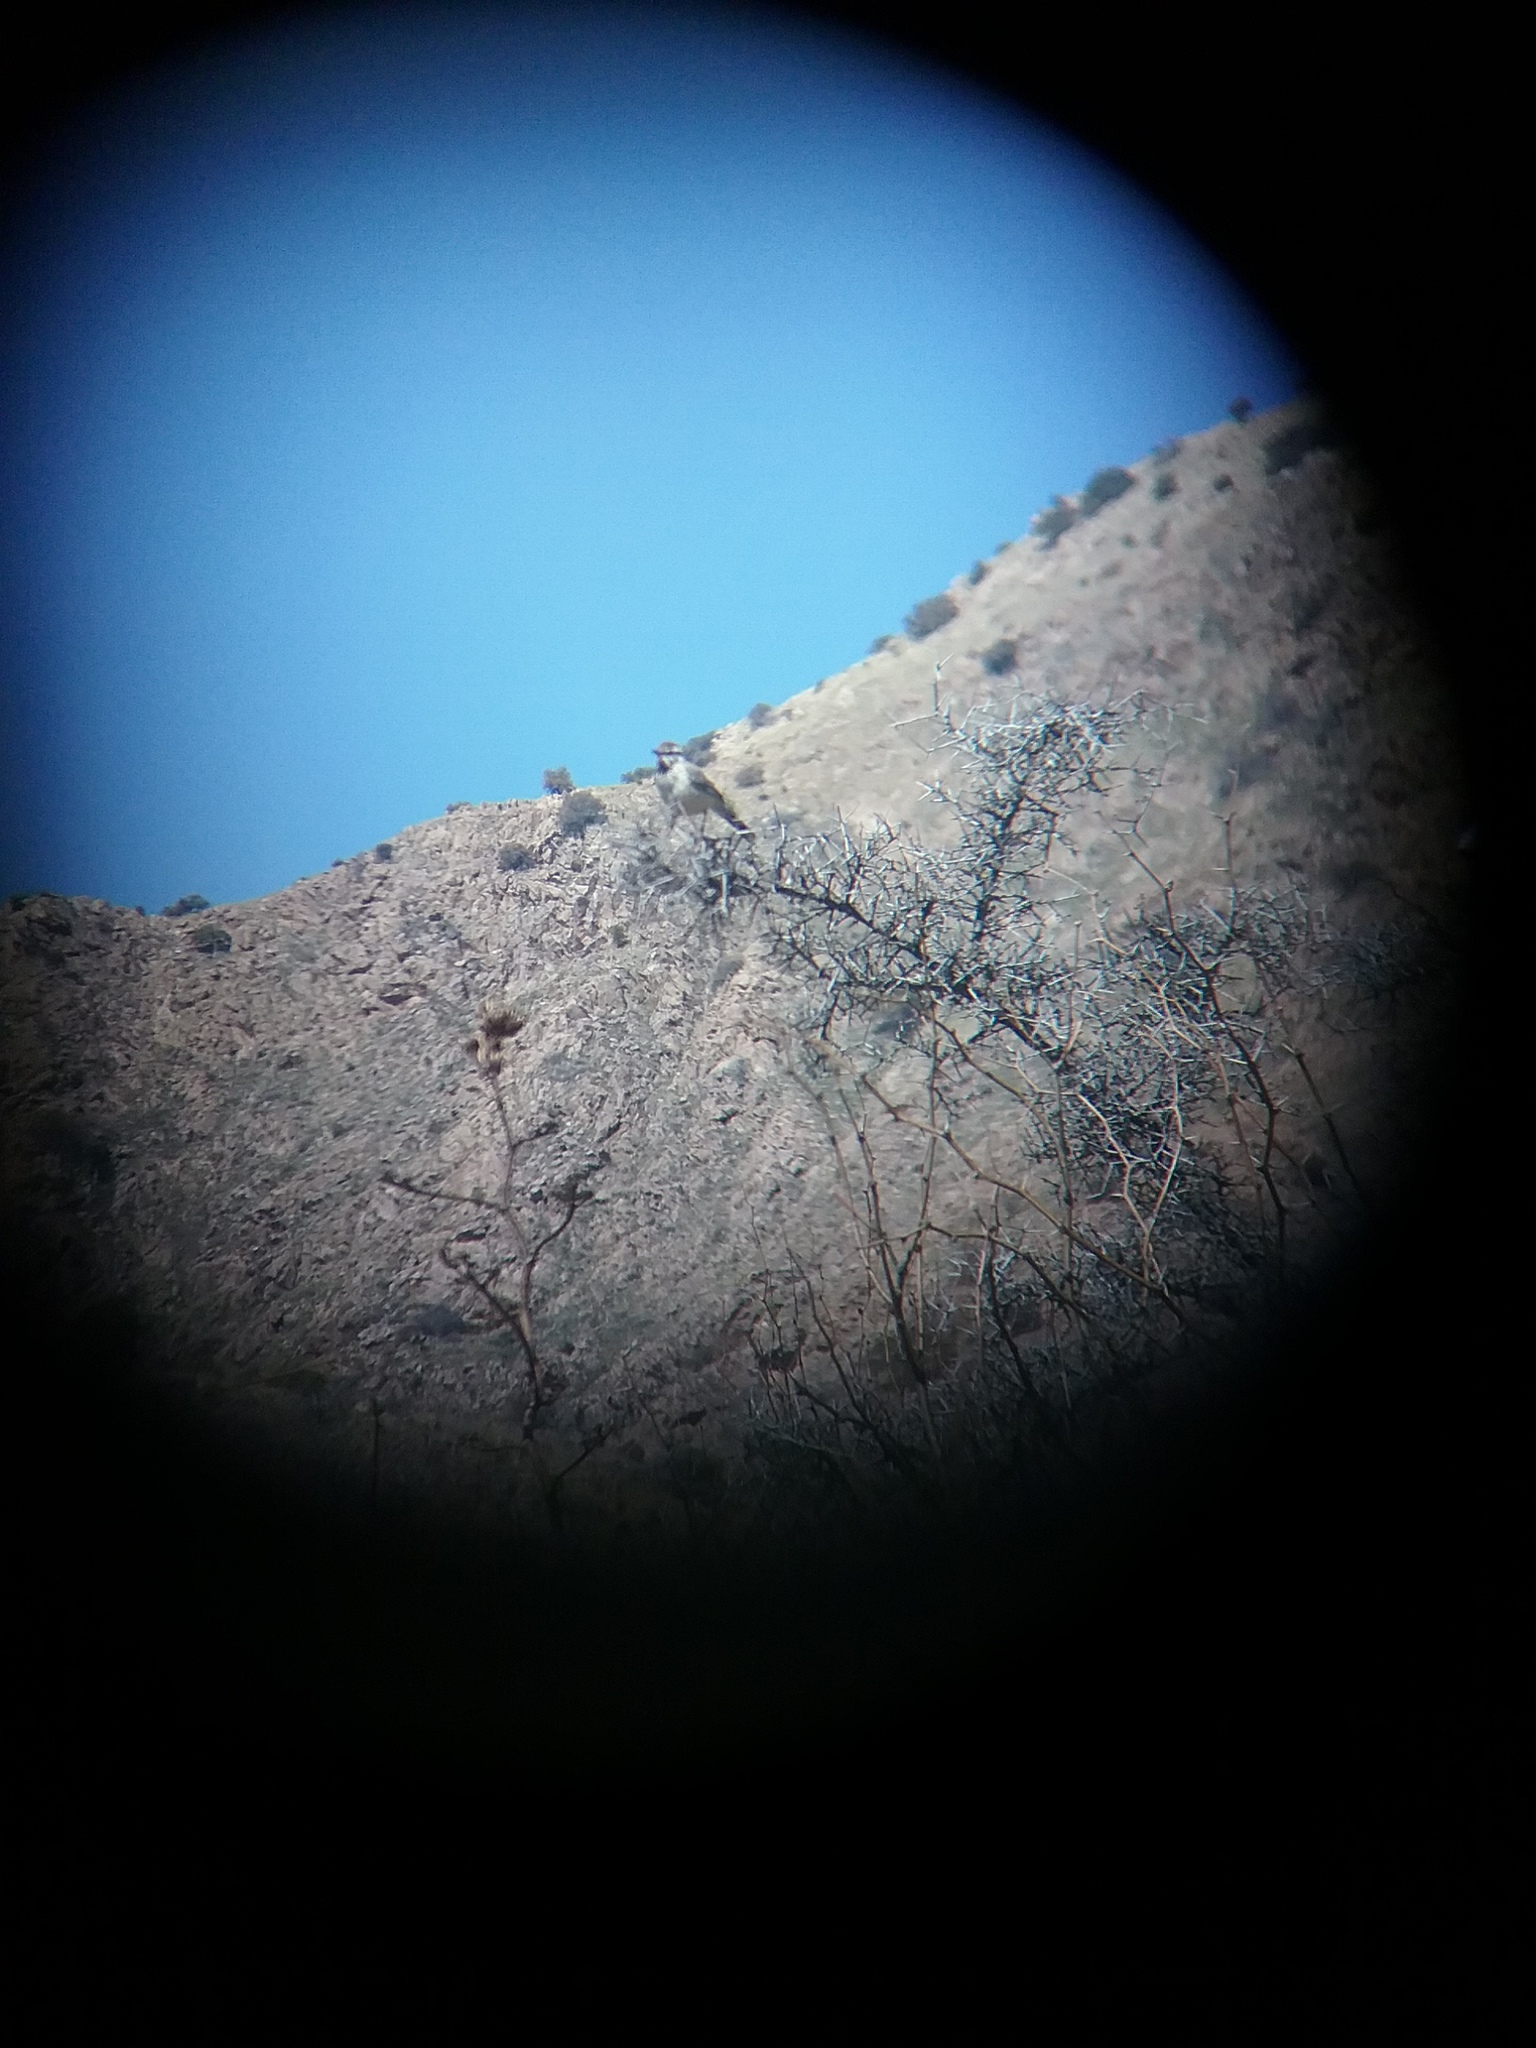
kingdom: Animalia
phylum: Chordata
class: Aves
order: Passeriformes
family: Troglodytidae
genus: Campylorhynchus
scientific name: Campylorhynchus brunneicapillus
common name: Cactus wren
